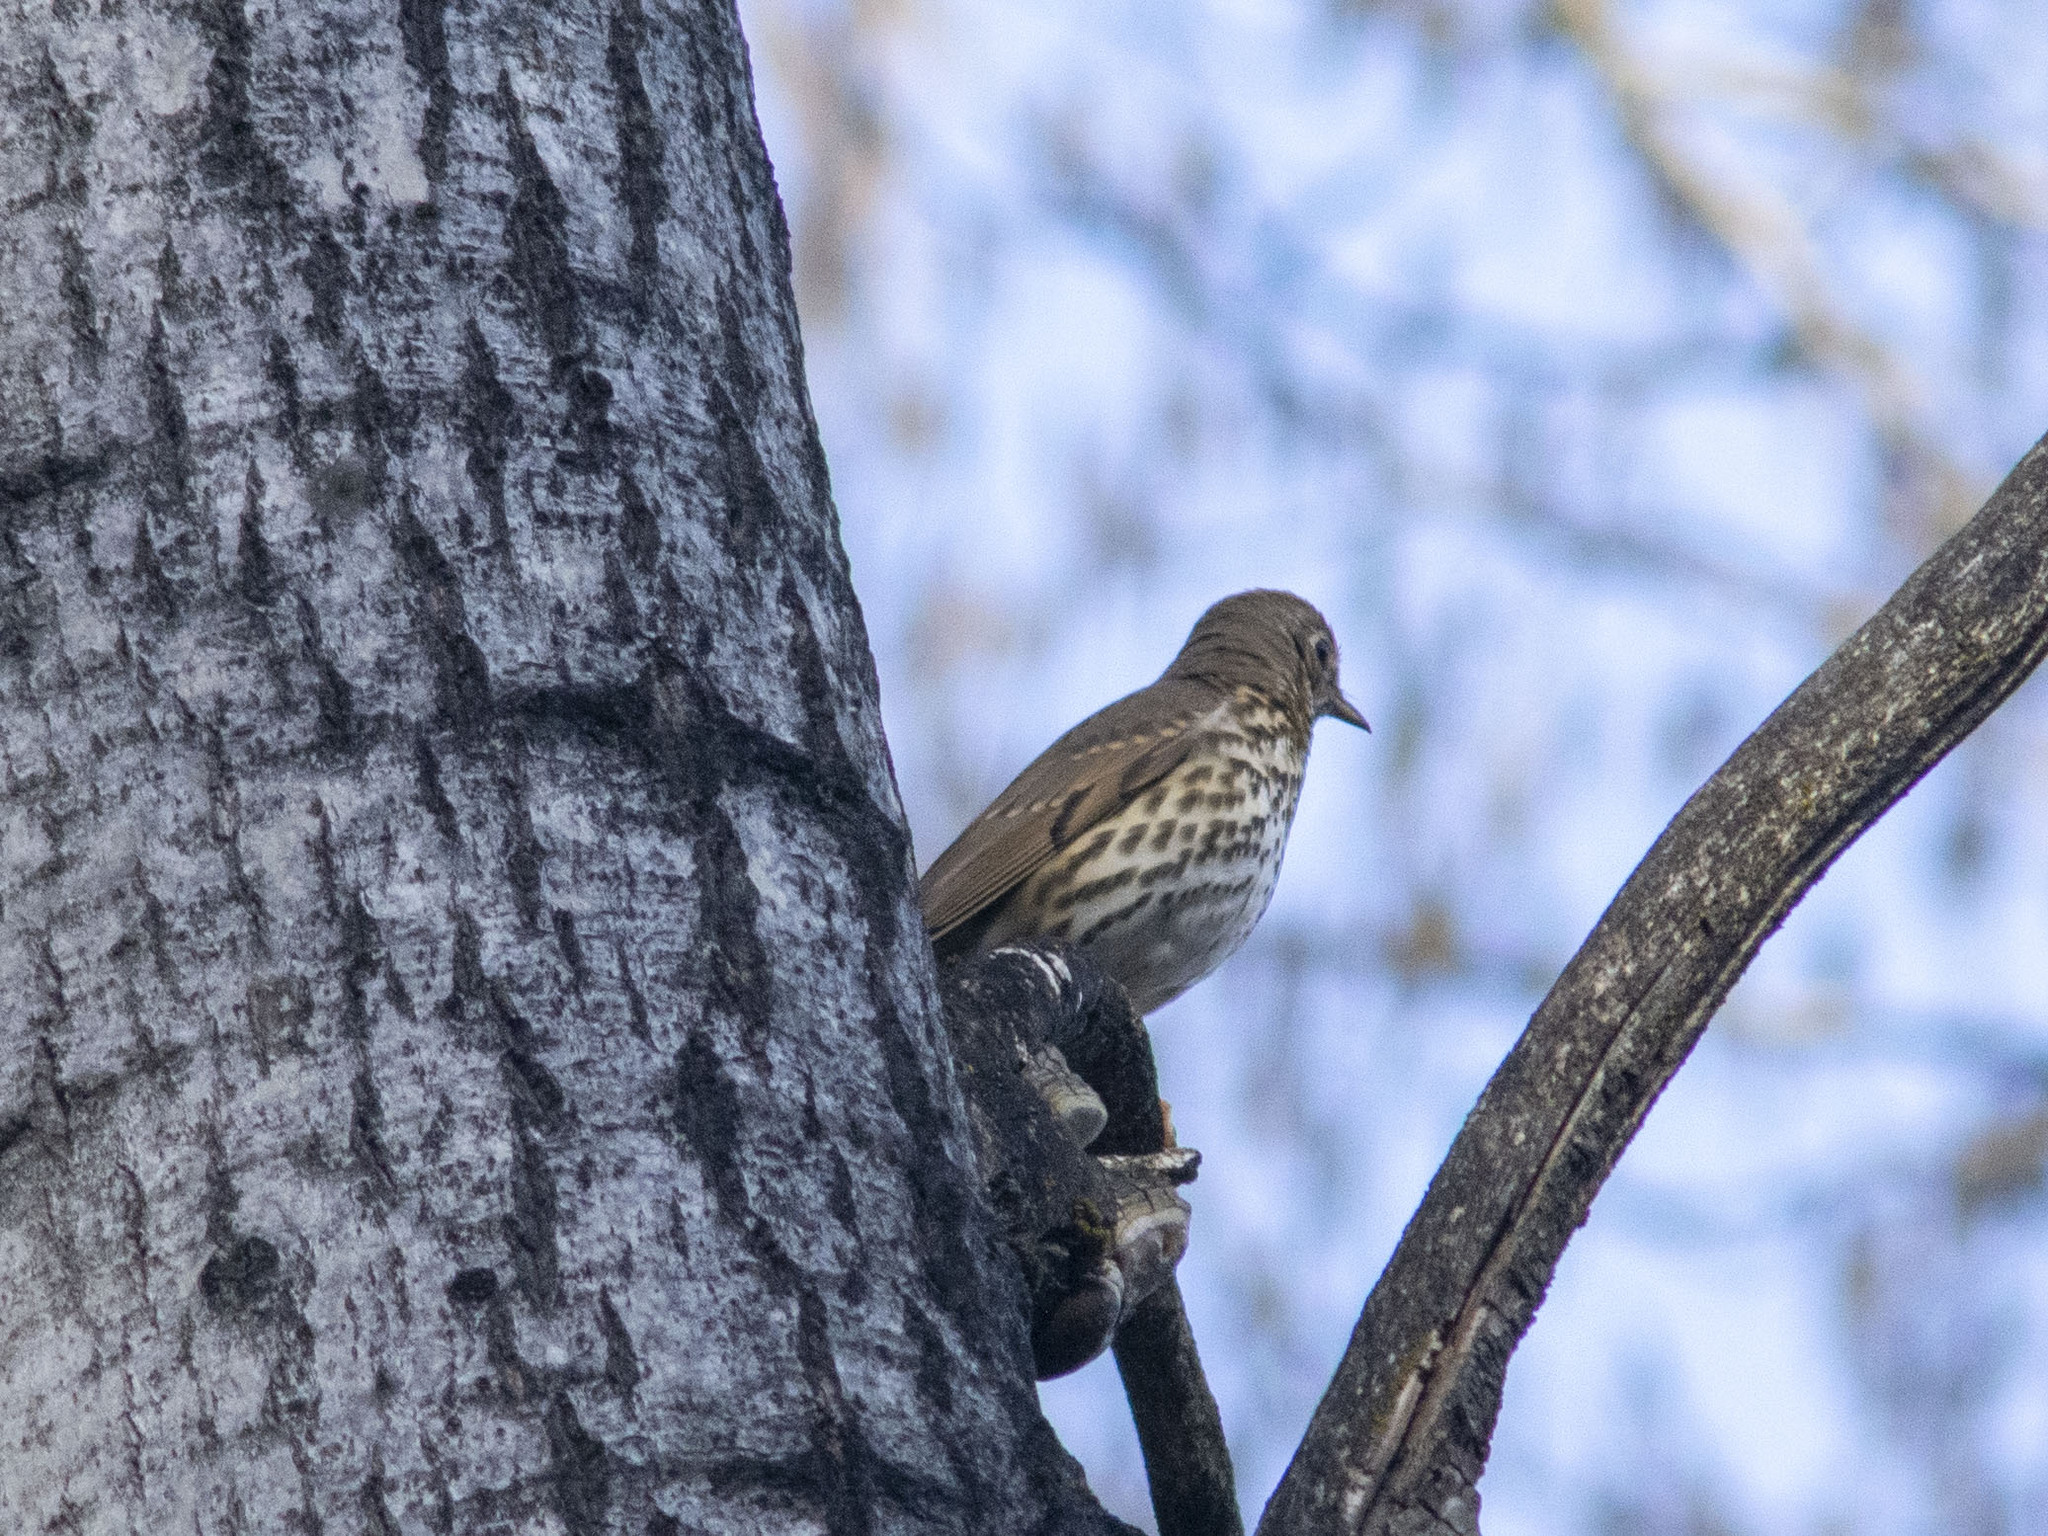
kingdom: Animalia
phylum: Chordata
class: Aves
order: Passeriformes
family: Turdidae
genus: Turdus
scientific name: Turdus philomelos
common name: Song thrush
